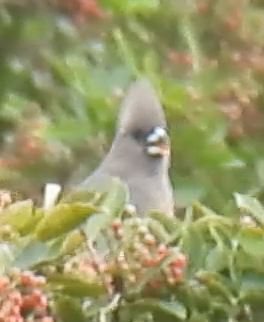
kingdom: Animalia
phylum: Chordata
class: Aves
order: Coliiformes
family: Coliidae
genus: Colius
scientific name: Colius colius
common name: White-backed mousebird
